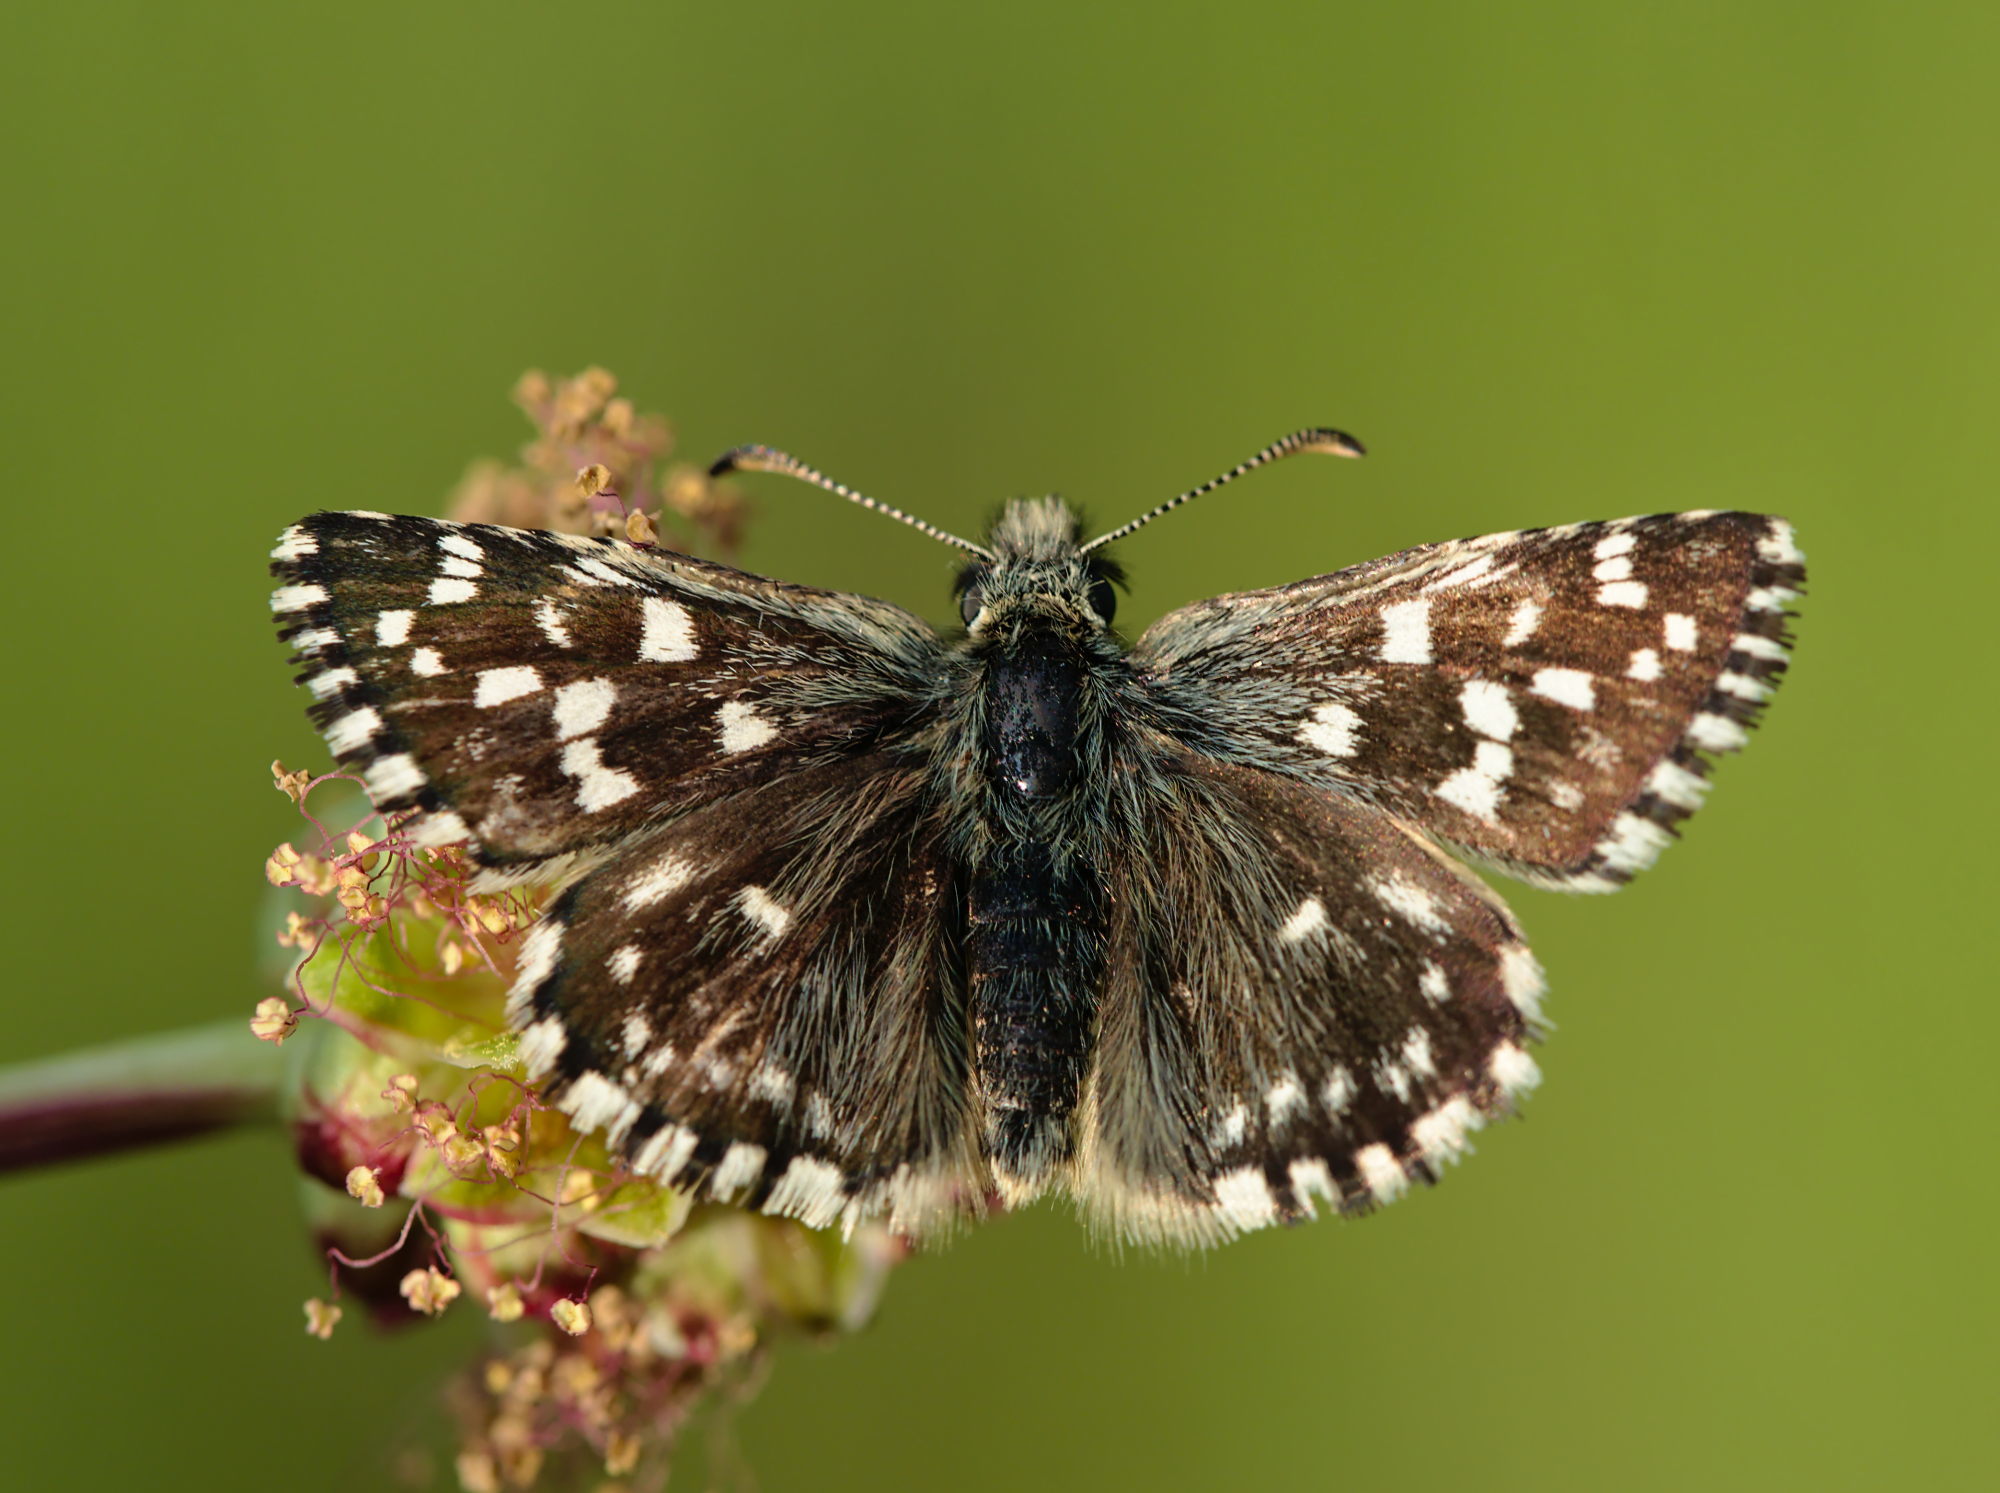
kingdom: Animalia
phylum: Arthropoda
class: Insecta
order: Lepidoptera
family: Hesperiidae
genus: Pyrgus
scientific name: Pyrgus malvae
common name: Grizzled skipper
